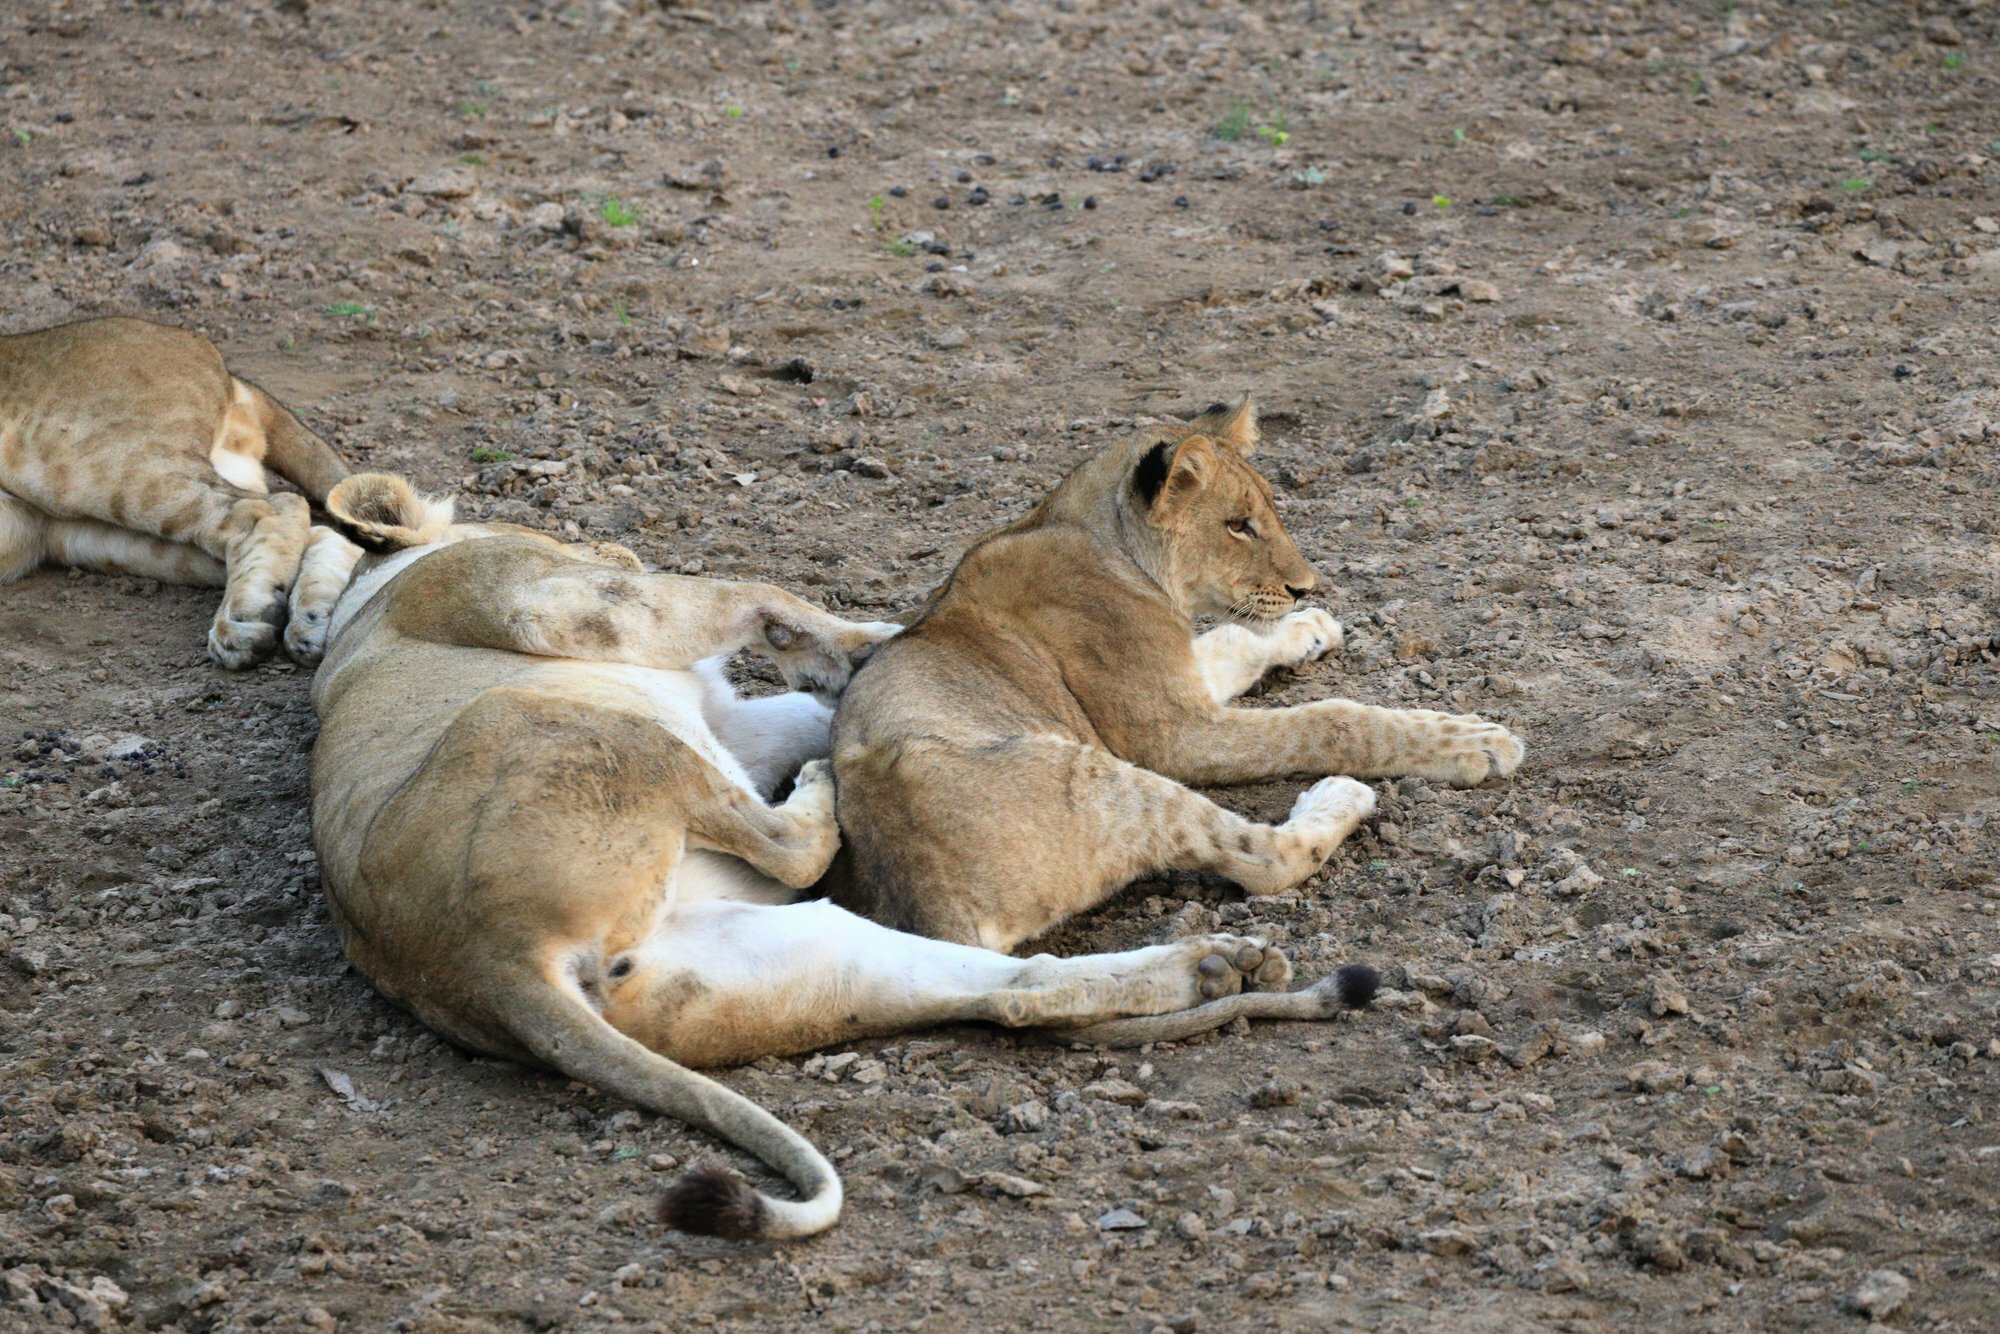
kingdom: Animalia
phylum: Chordata
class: Mammalia
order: Carnivora
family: Felidae
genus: Panthera
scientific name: Panthera leo
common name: Lion
